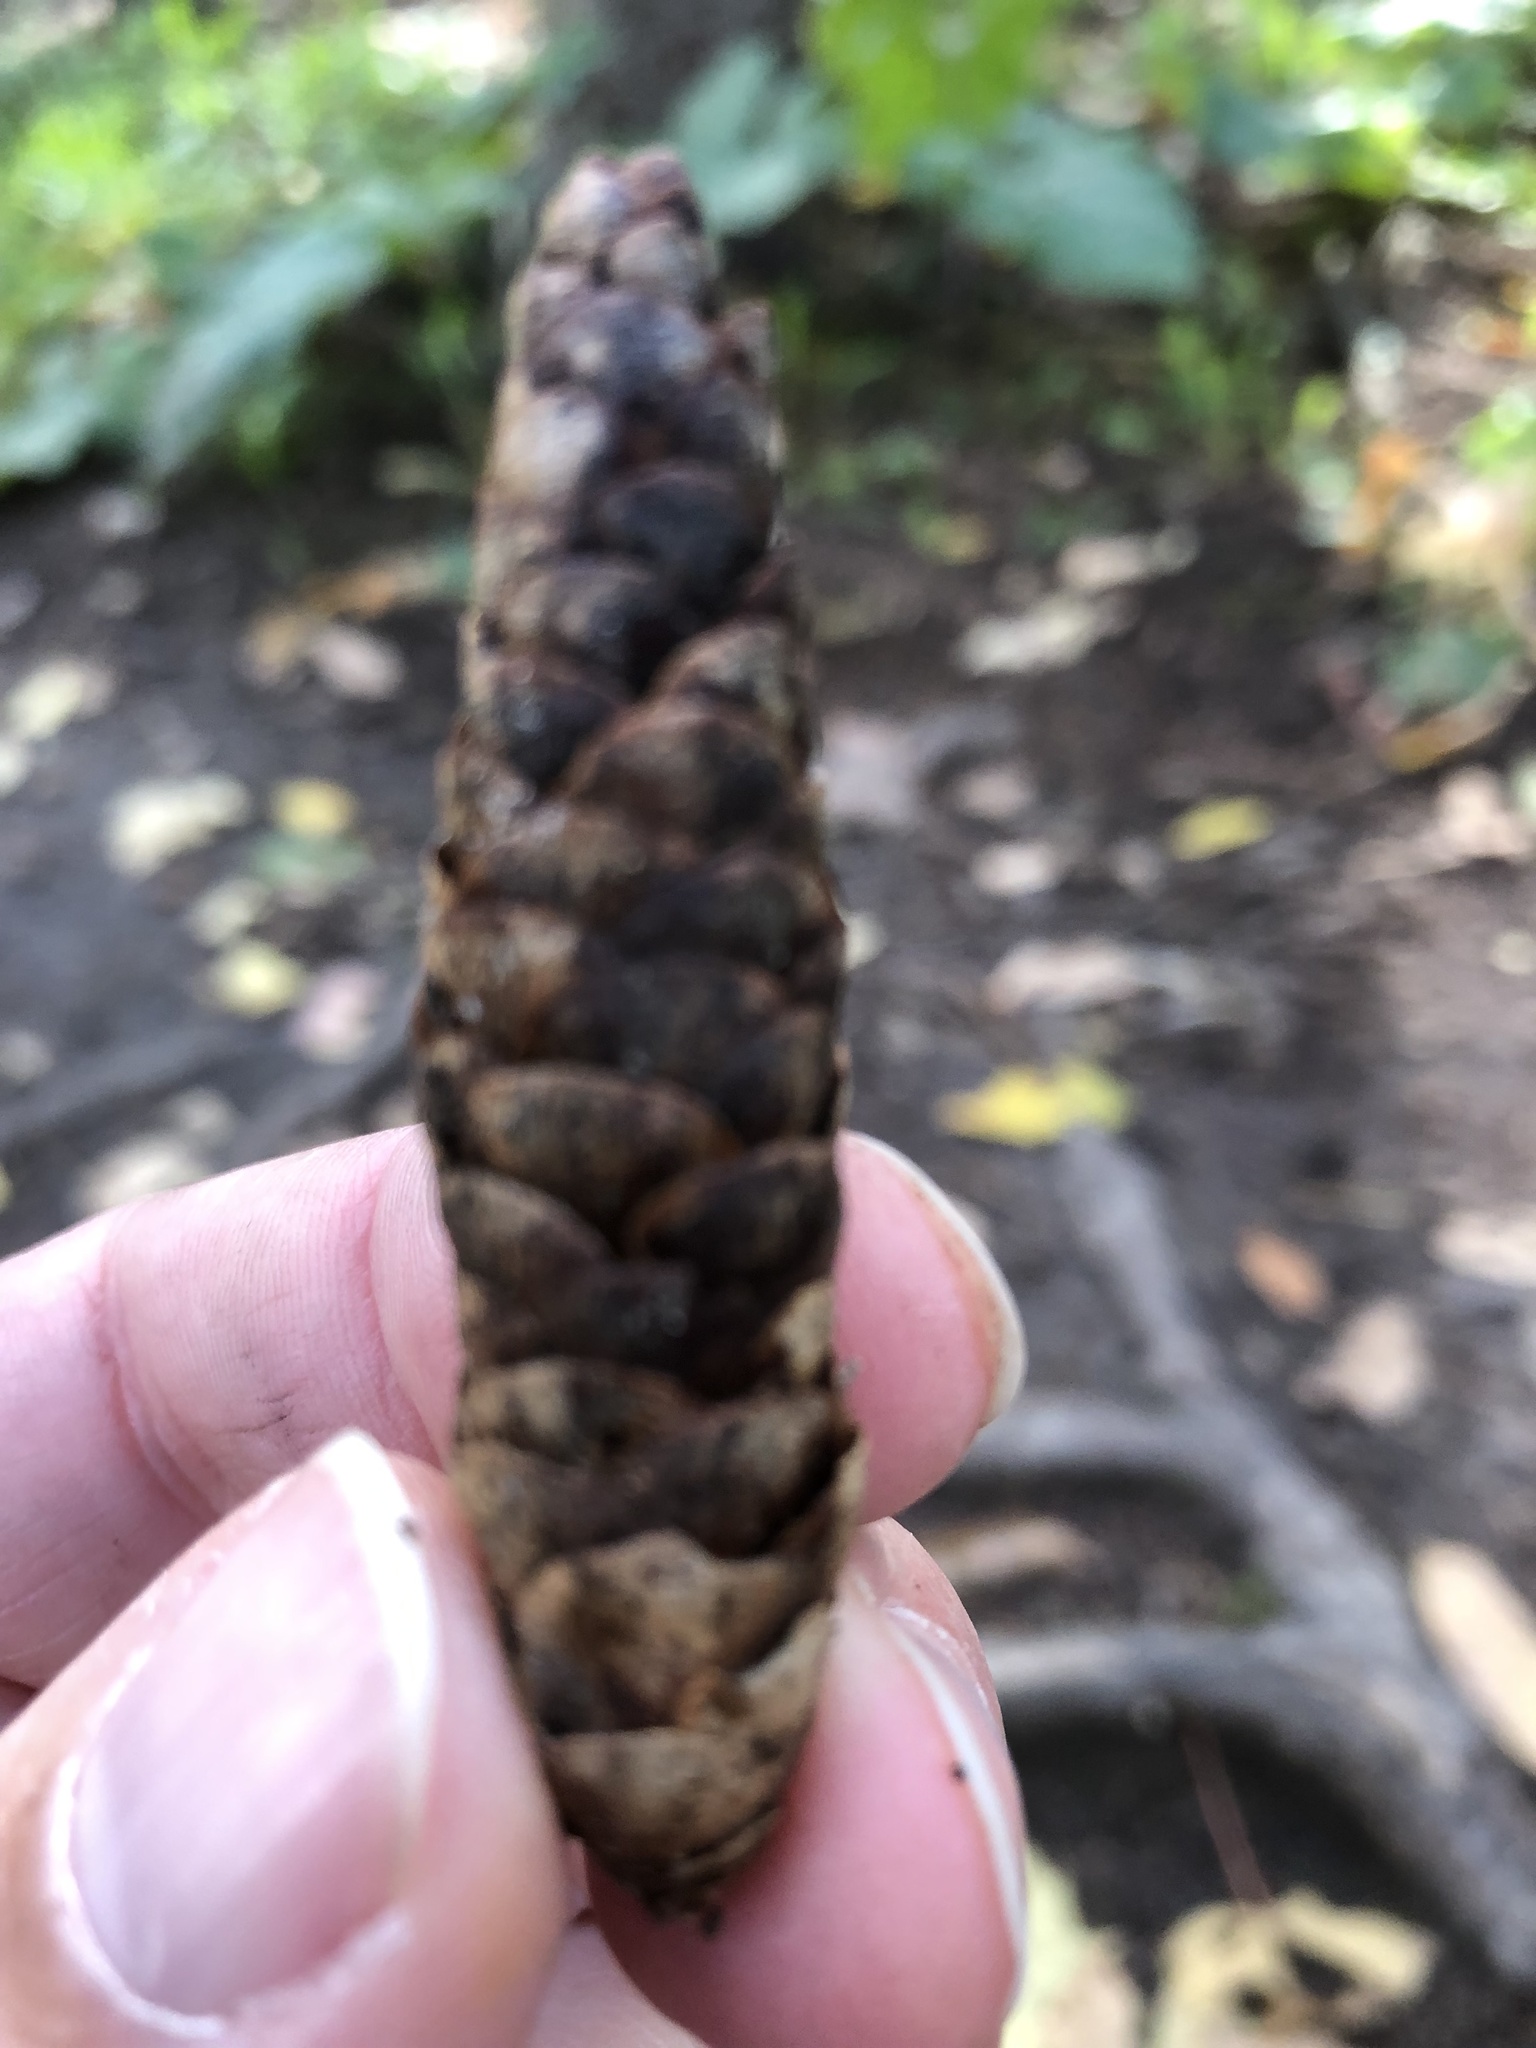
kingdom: Plantae
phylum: Tracheophyta
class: Pinopsida
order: Pinales
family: Pinaceae
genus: Picea
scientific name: Picea glauca
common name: White spruce
